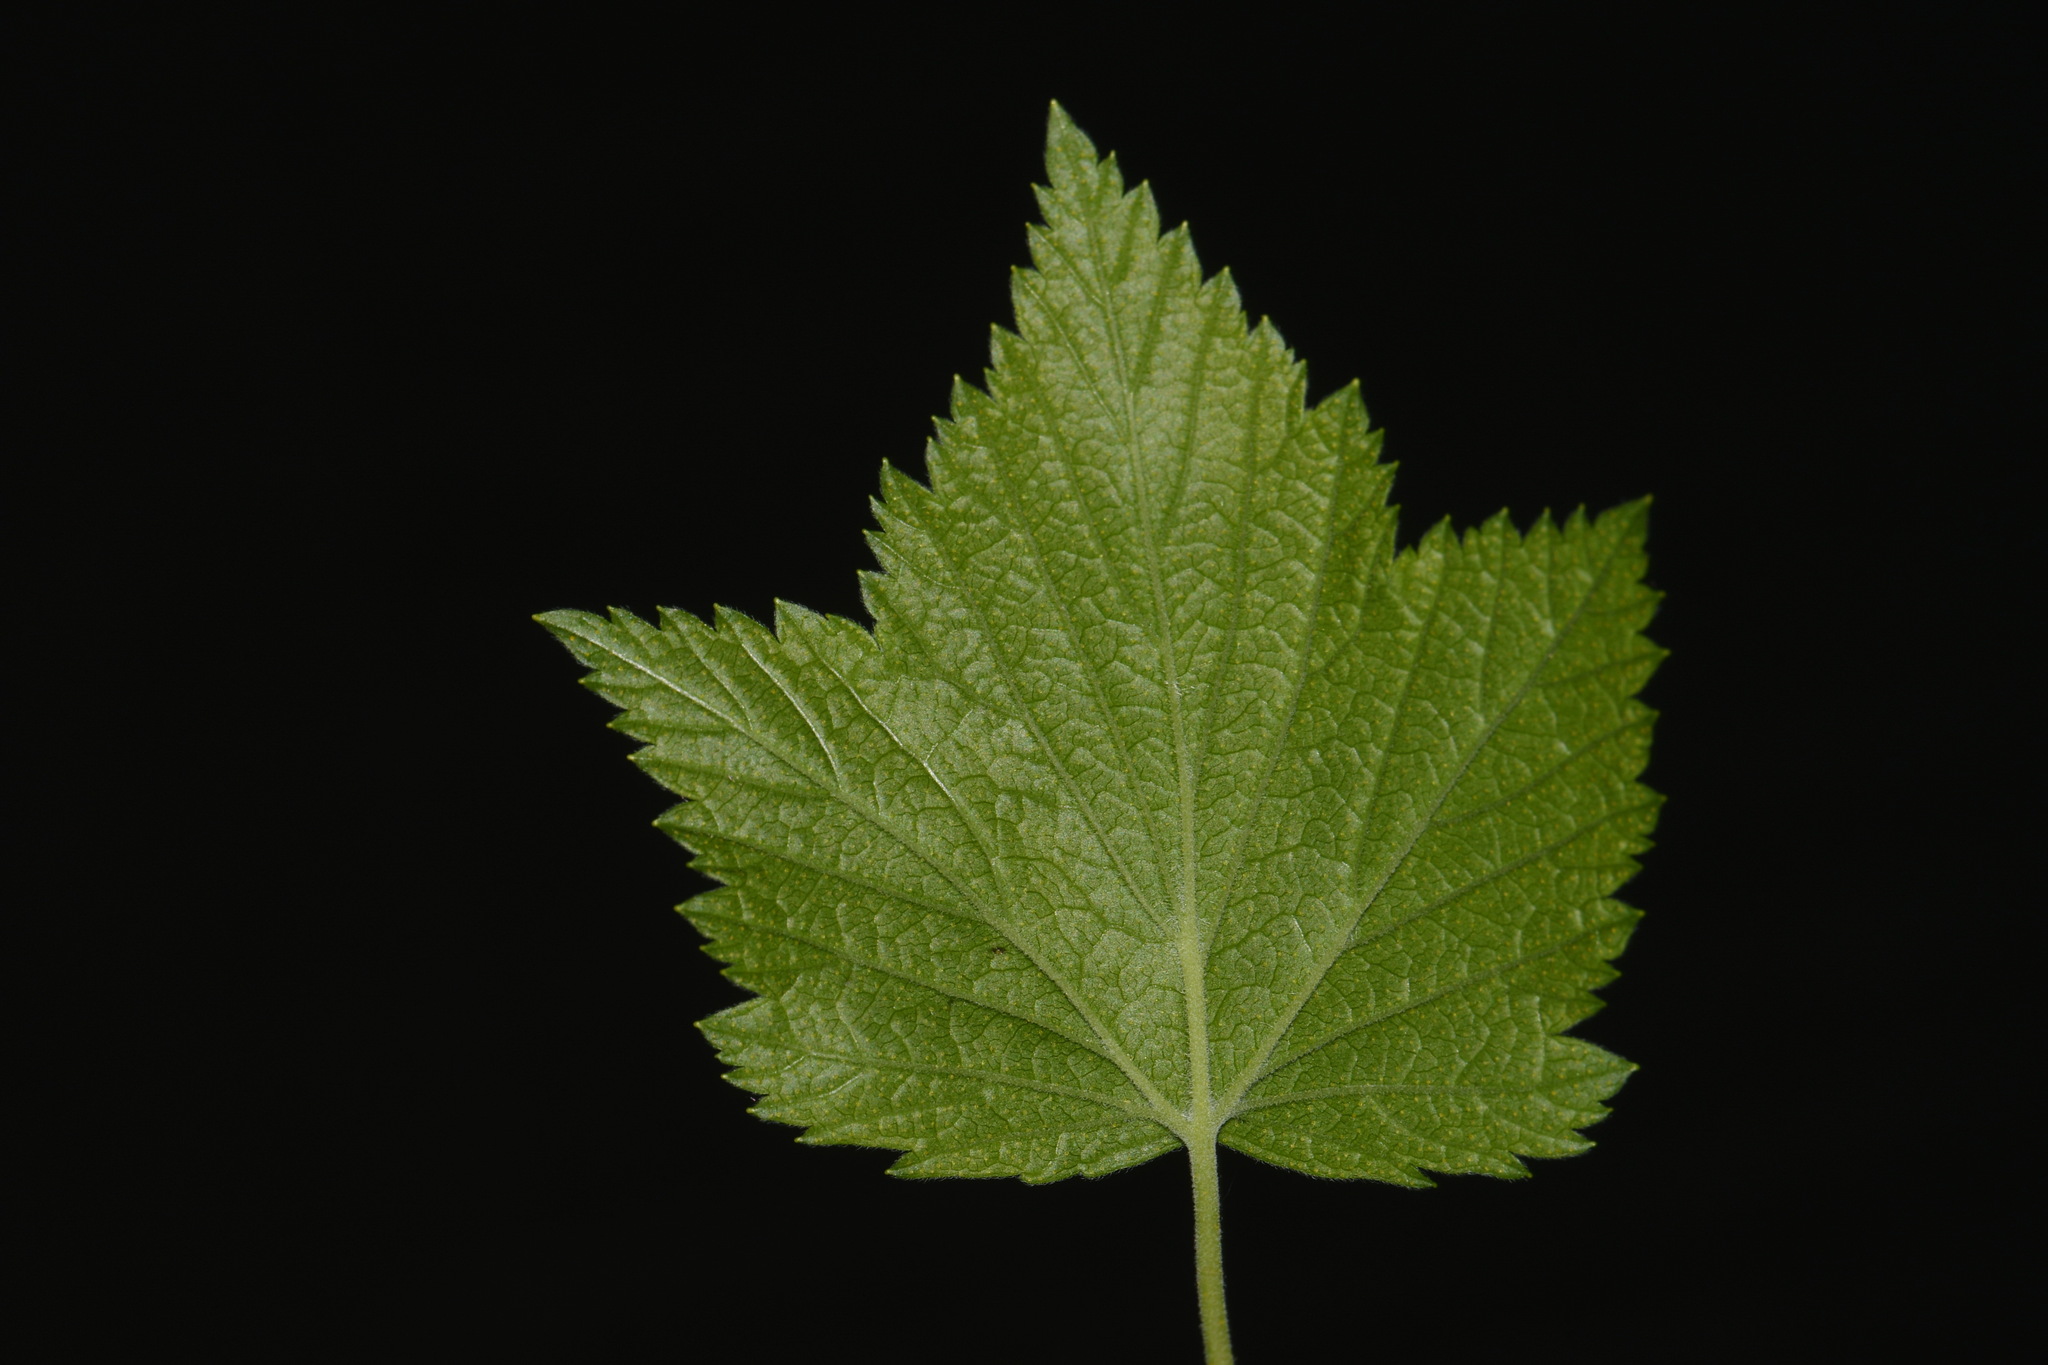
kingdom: Plantae
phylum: Tracheophyta
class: Magnoliopsida
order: Saxifragales
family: Grossulariaceae
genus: Ribes
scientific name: Ribes americanum
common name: American black currant
